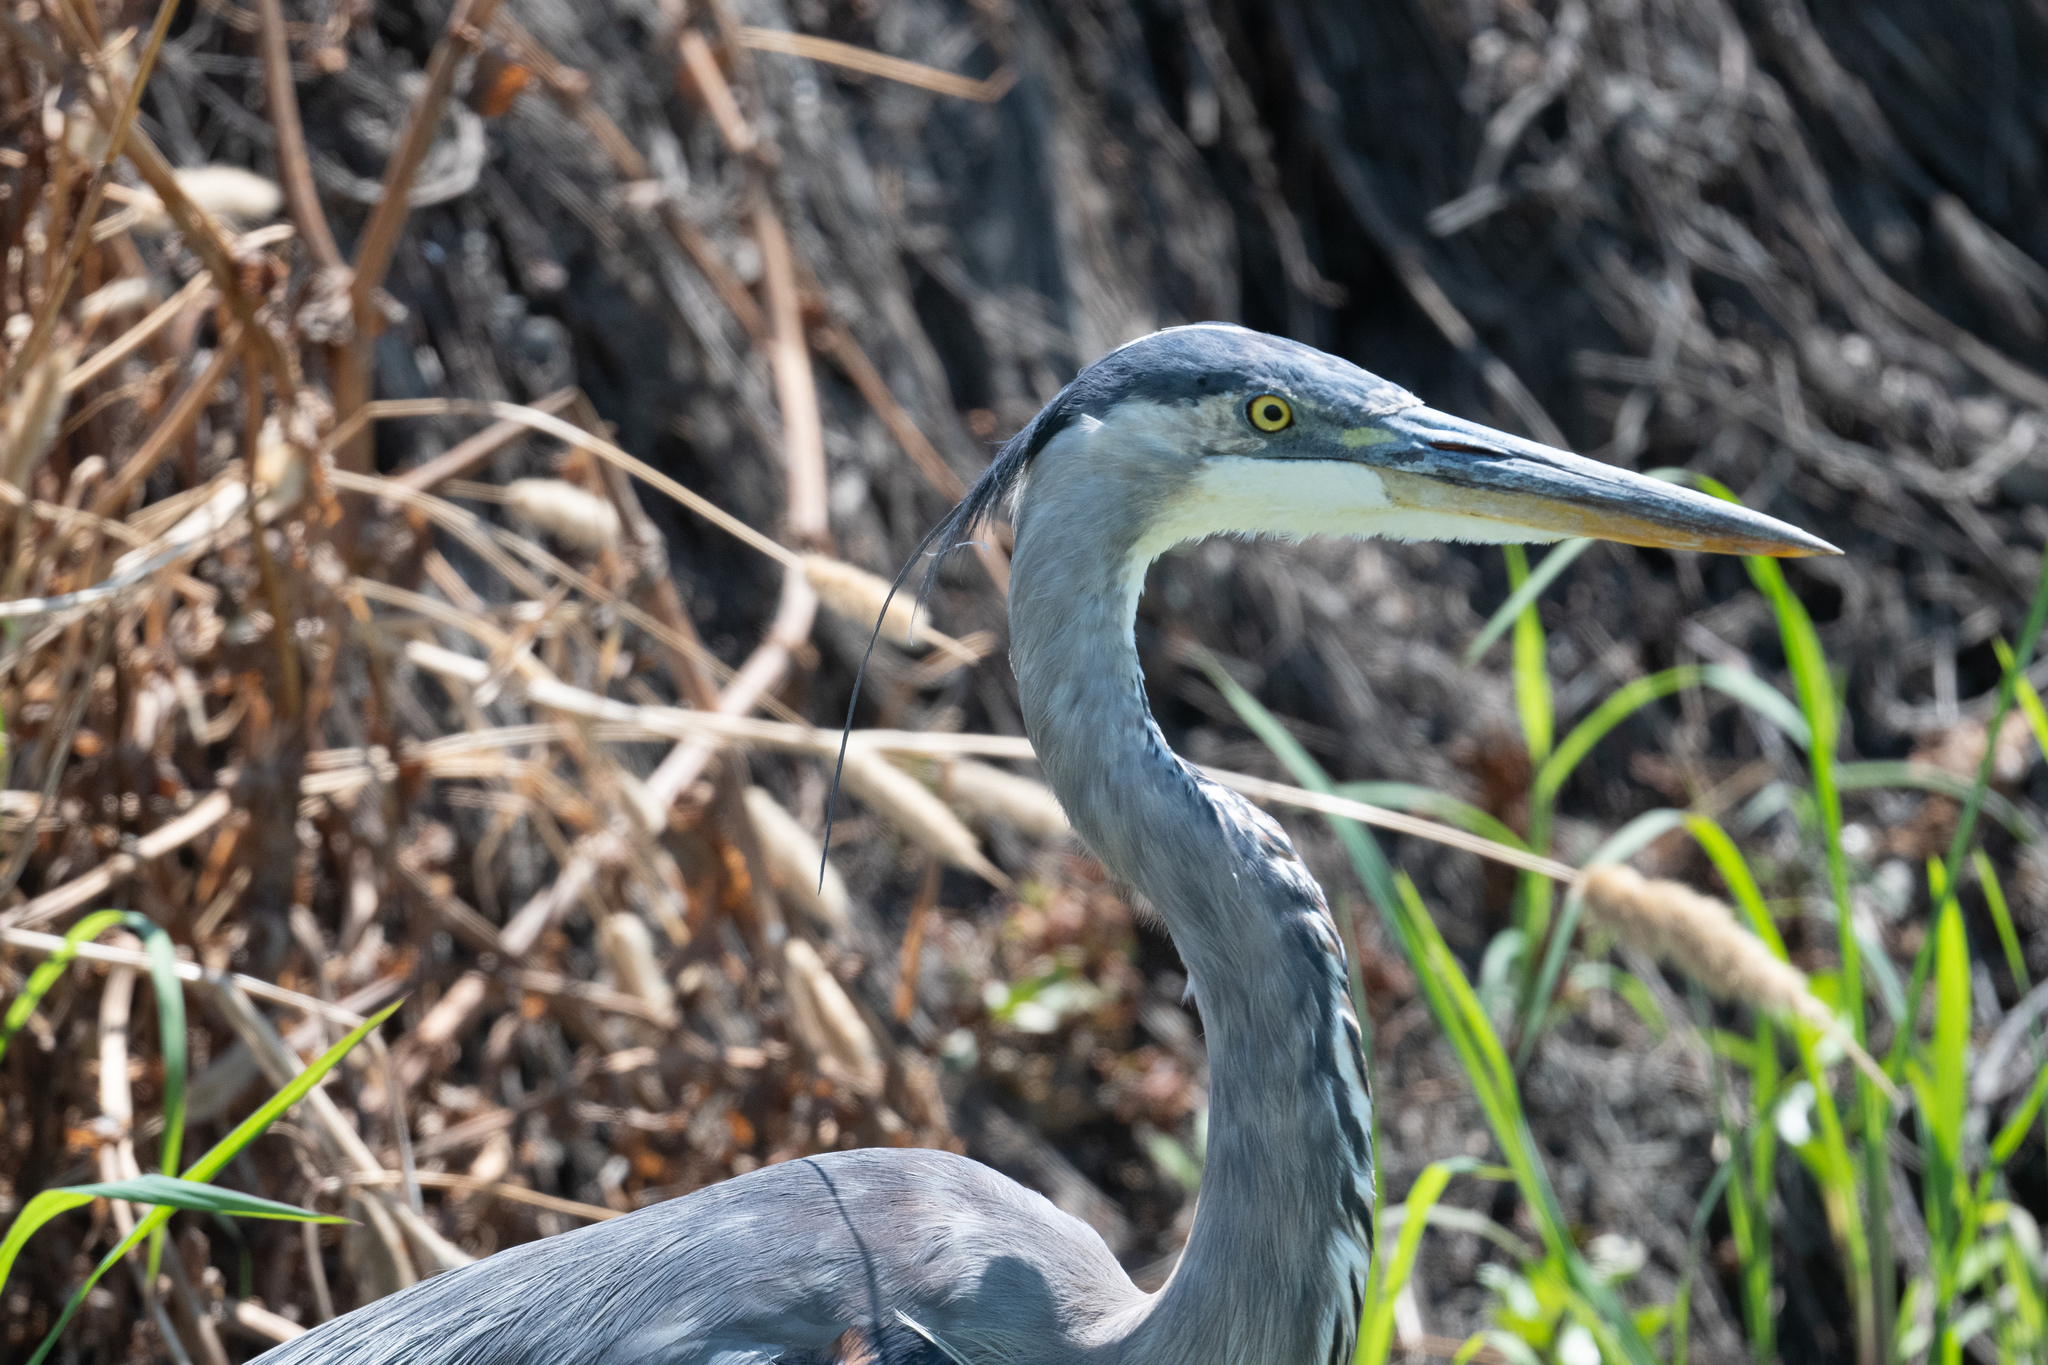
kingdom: Animalia
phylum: Chordata
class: Aves
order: Pelecaniformes
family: Ardeidae
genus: Ardea
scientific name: Ardea herodias
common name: Great blue heron
